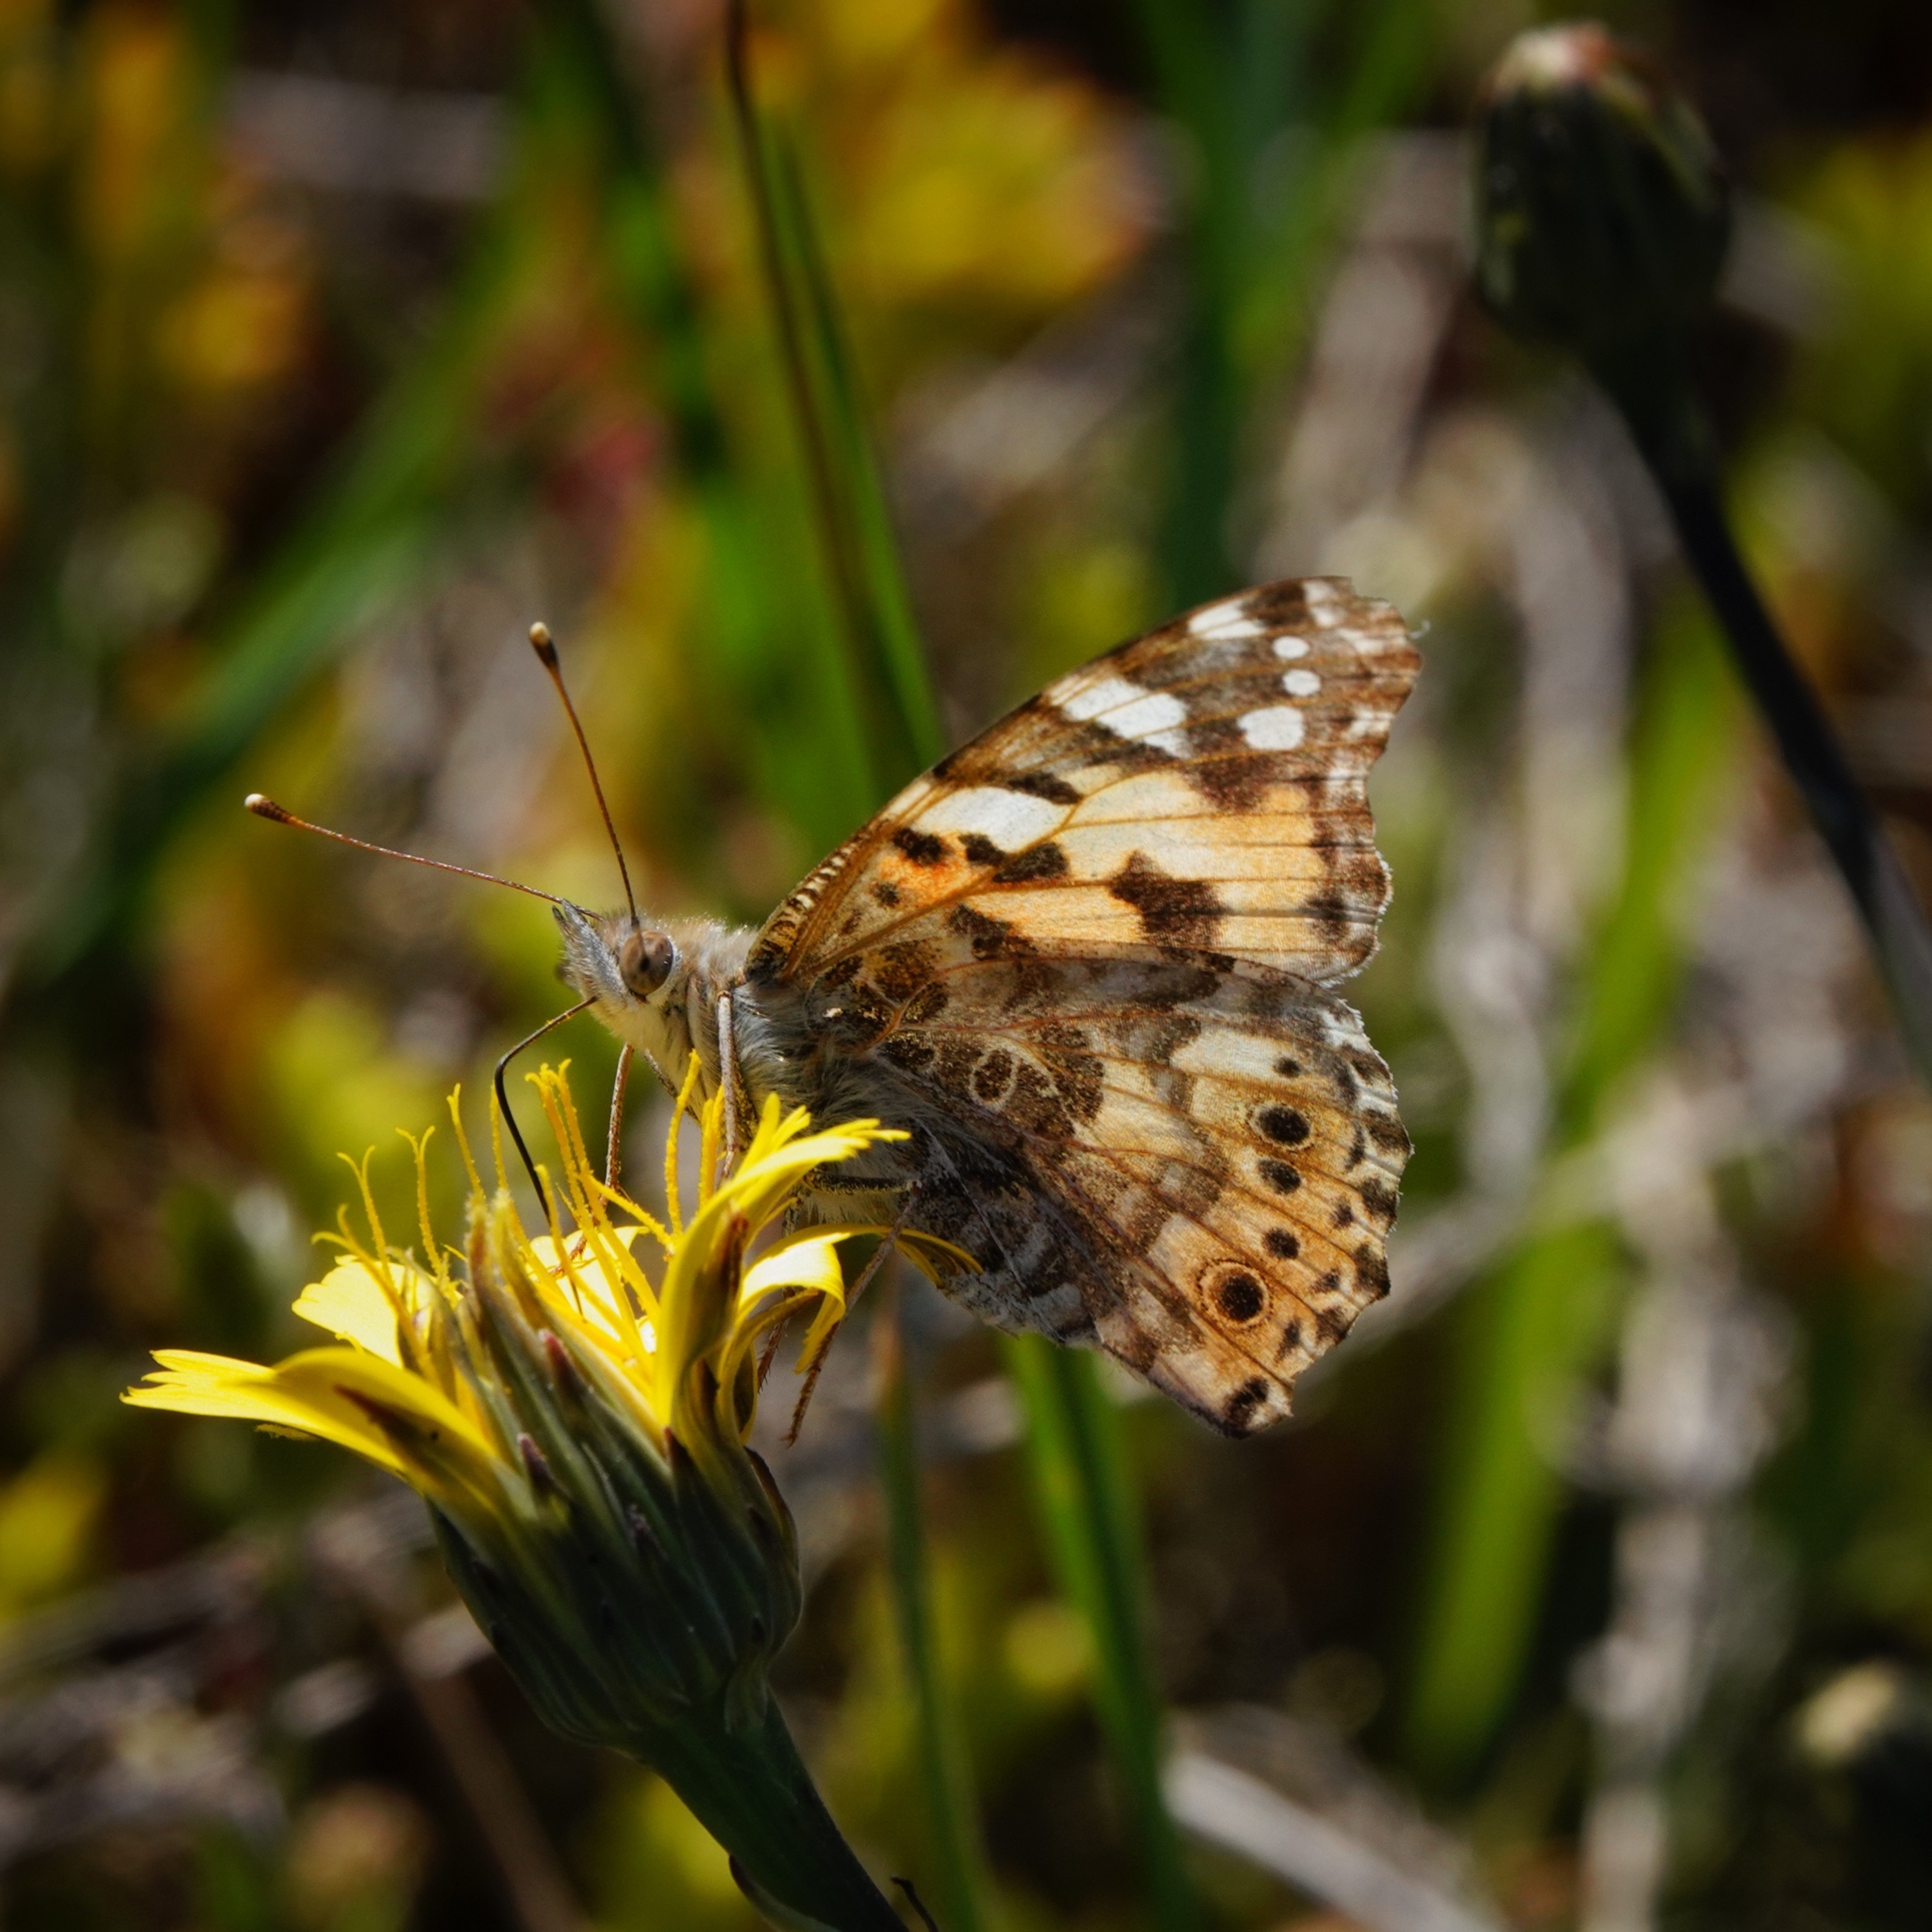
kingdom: Animalia
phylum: Arthropoda
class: Insecta
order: Lepidoptera
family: Nymphalidae
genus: Vanessa
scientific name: Vanessa cardui
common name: Painted lady
